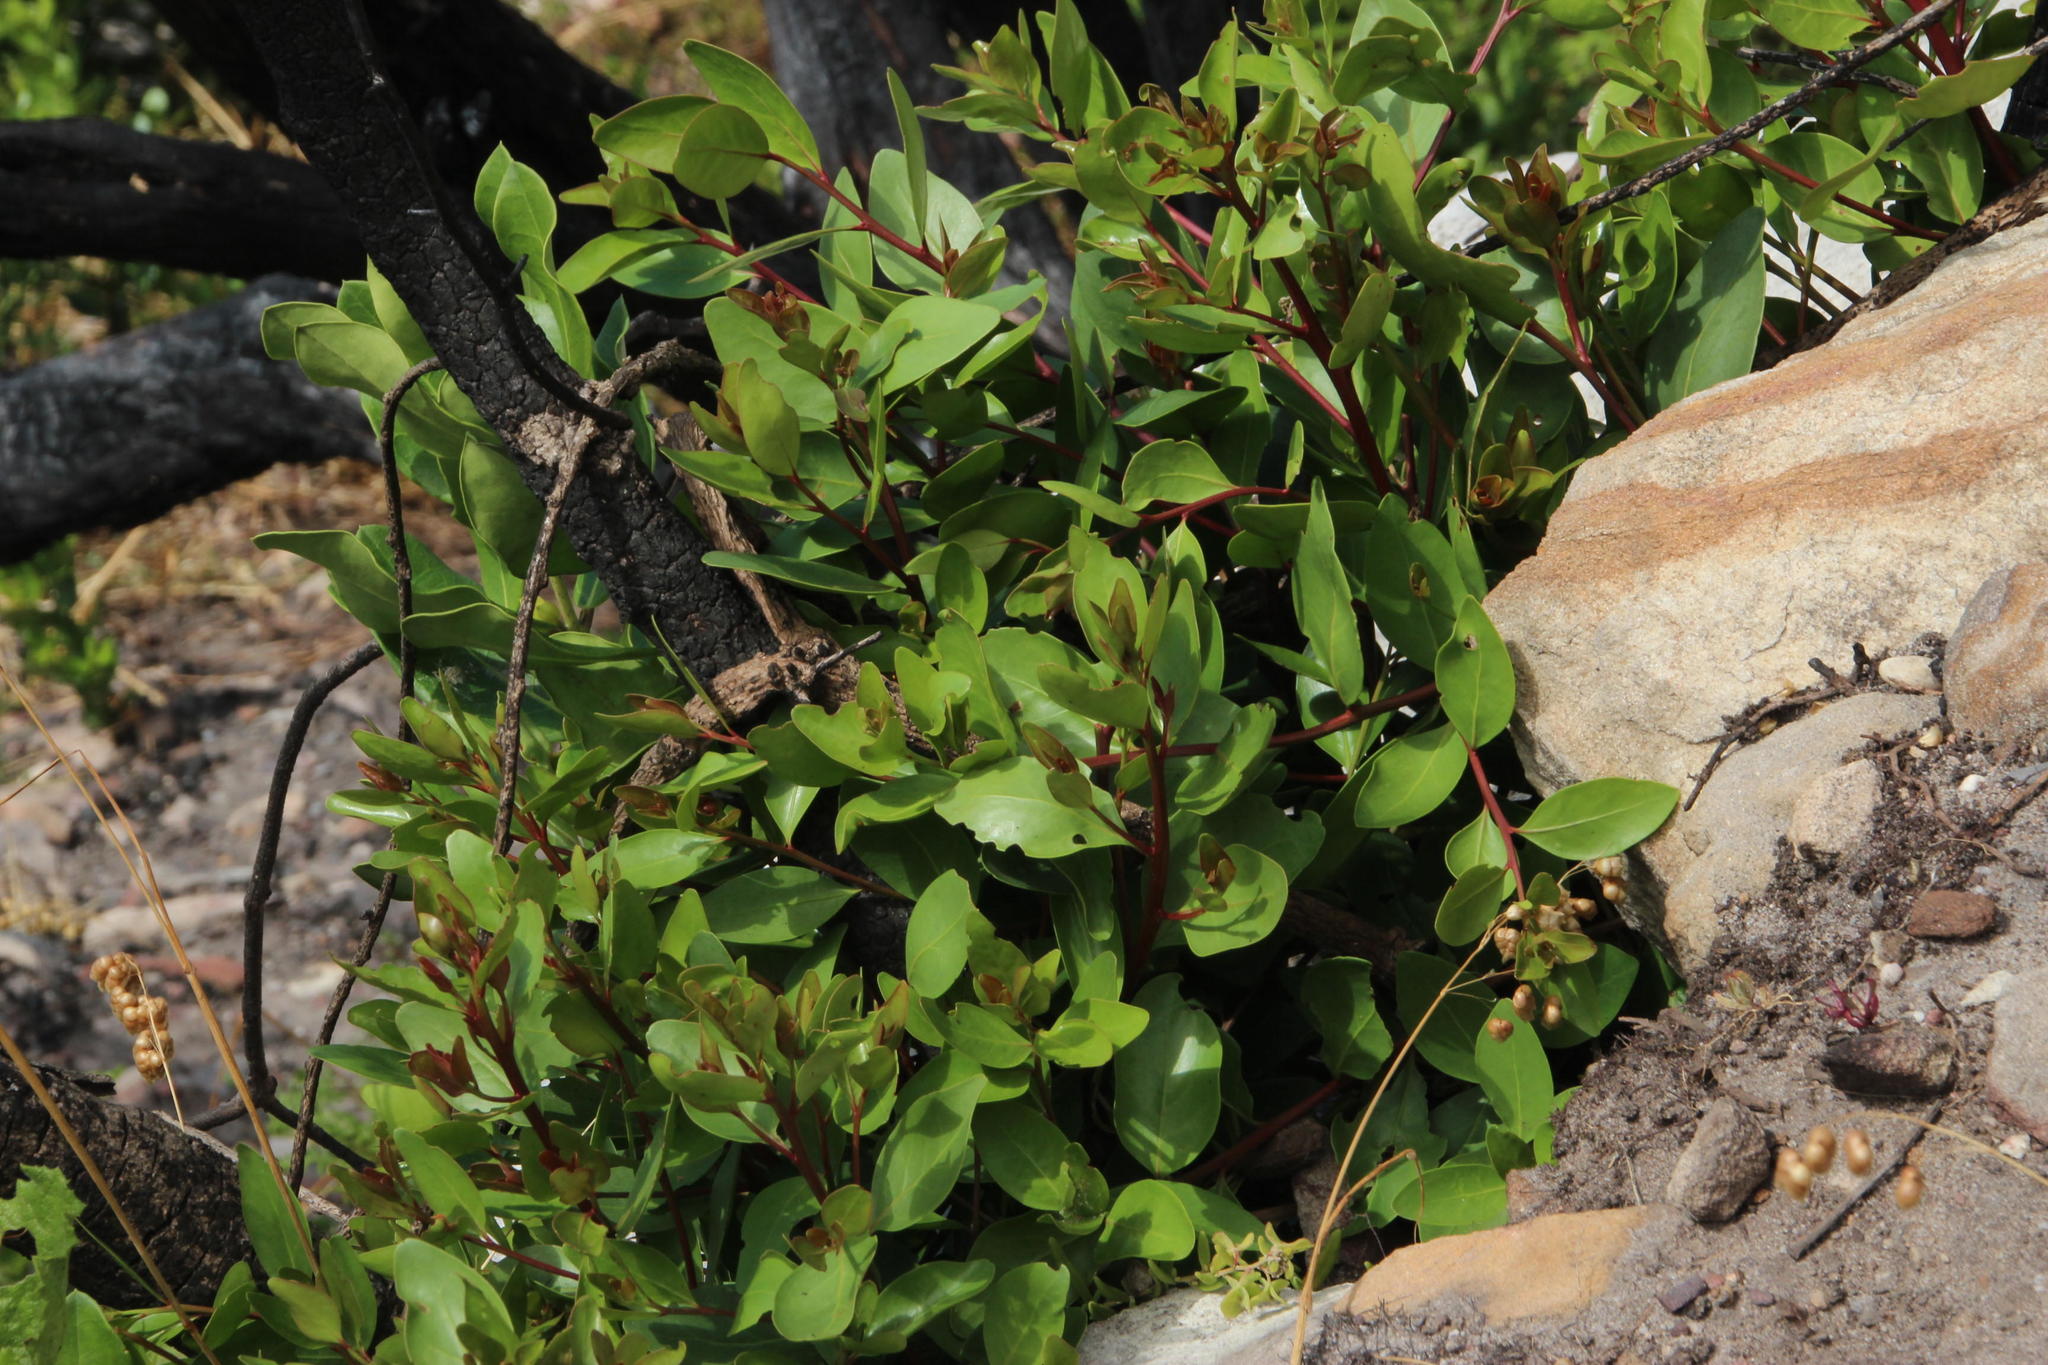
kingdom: Plantae
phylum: Tracheophyta
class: Magnoliopsida
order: Celastrales
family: Celastraceae
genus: Gymnosporia
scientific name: Gymnosporia laurina
